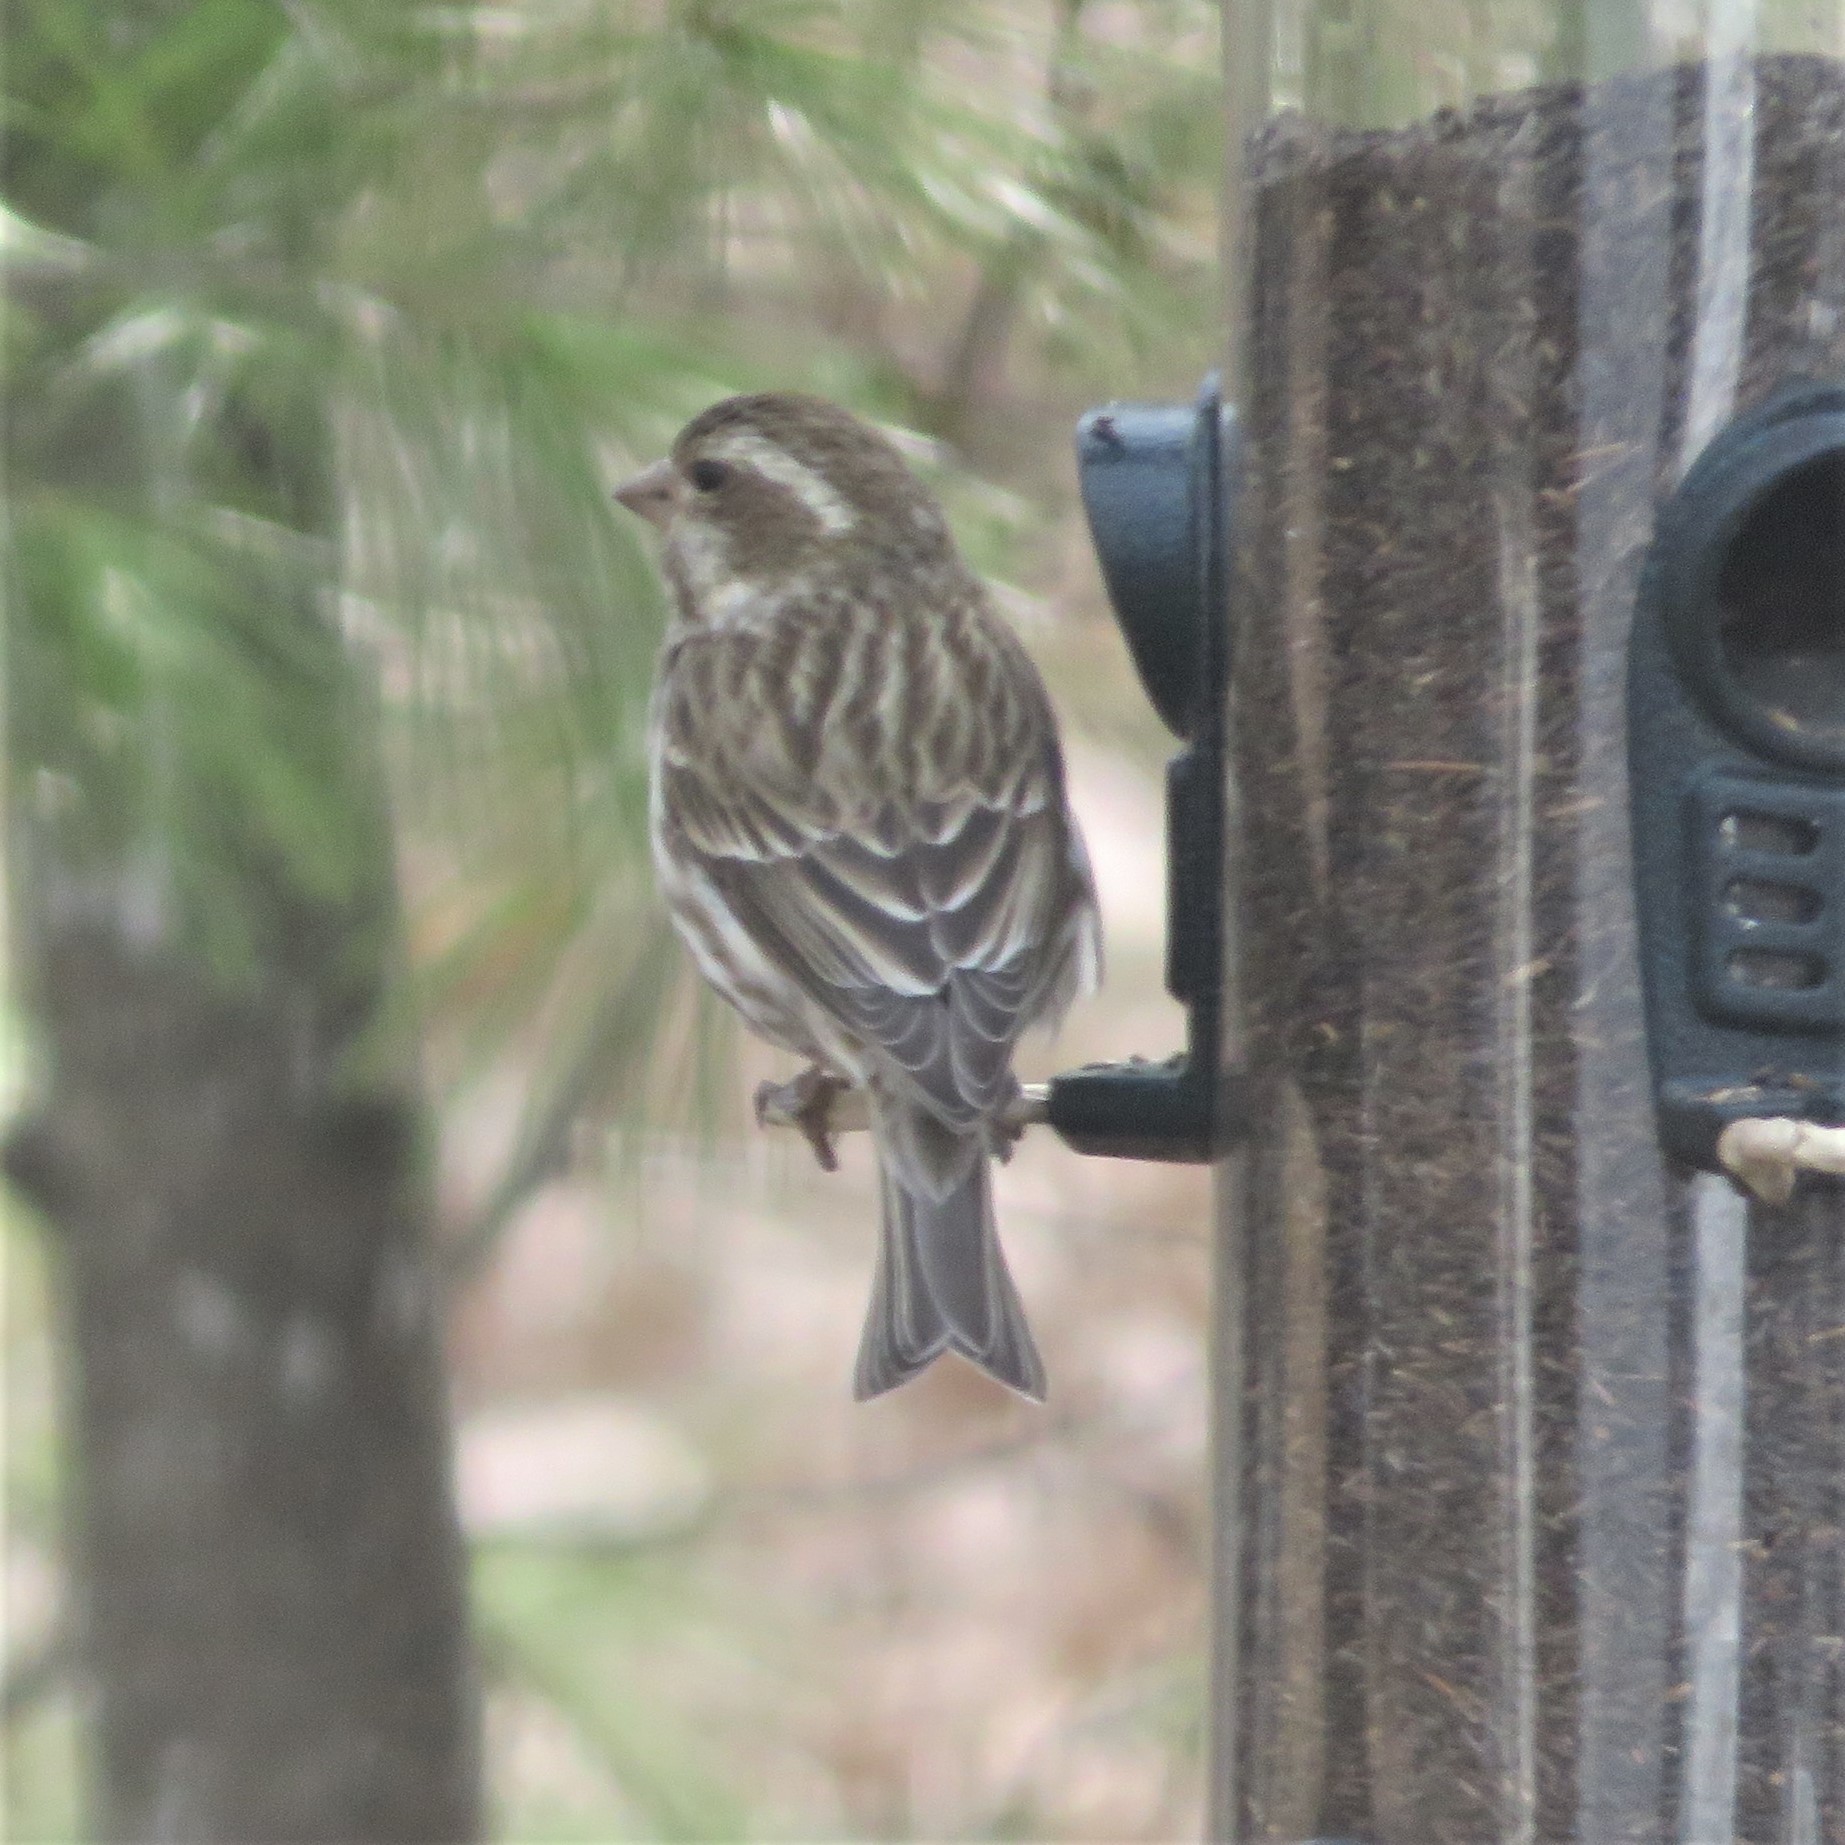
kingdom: Animalia
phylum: Chordata
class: Aves
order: Passeriformes
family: Fringillidae
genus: Haemorhous
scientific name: Haemorhous purpureus
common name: Purple finch
